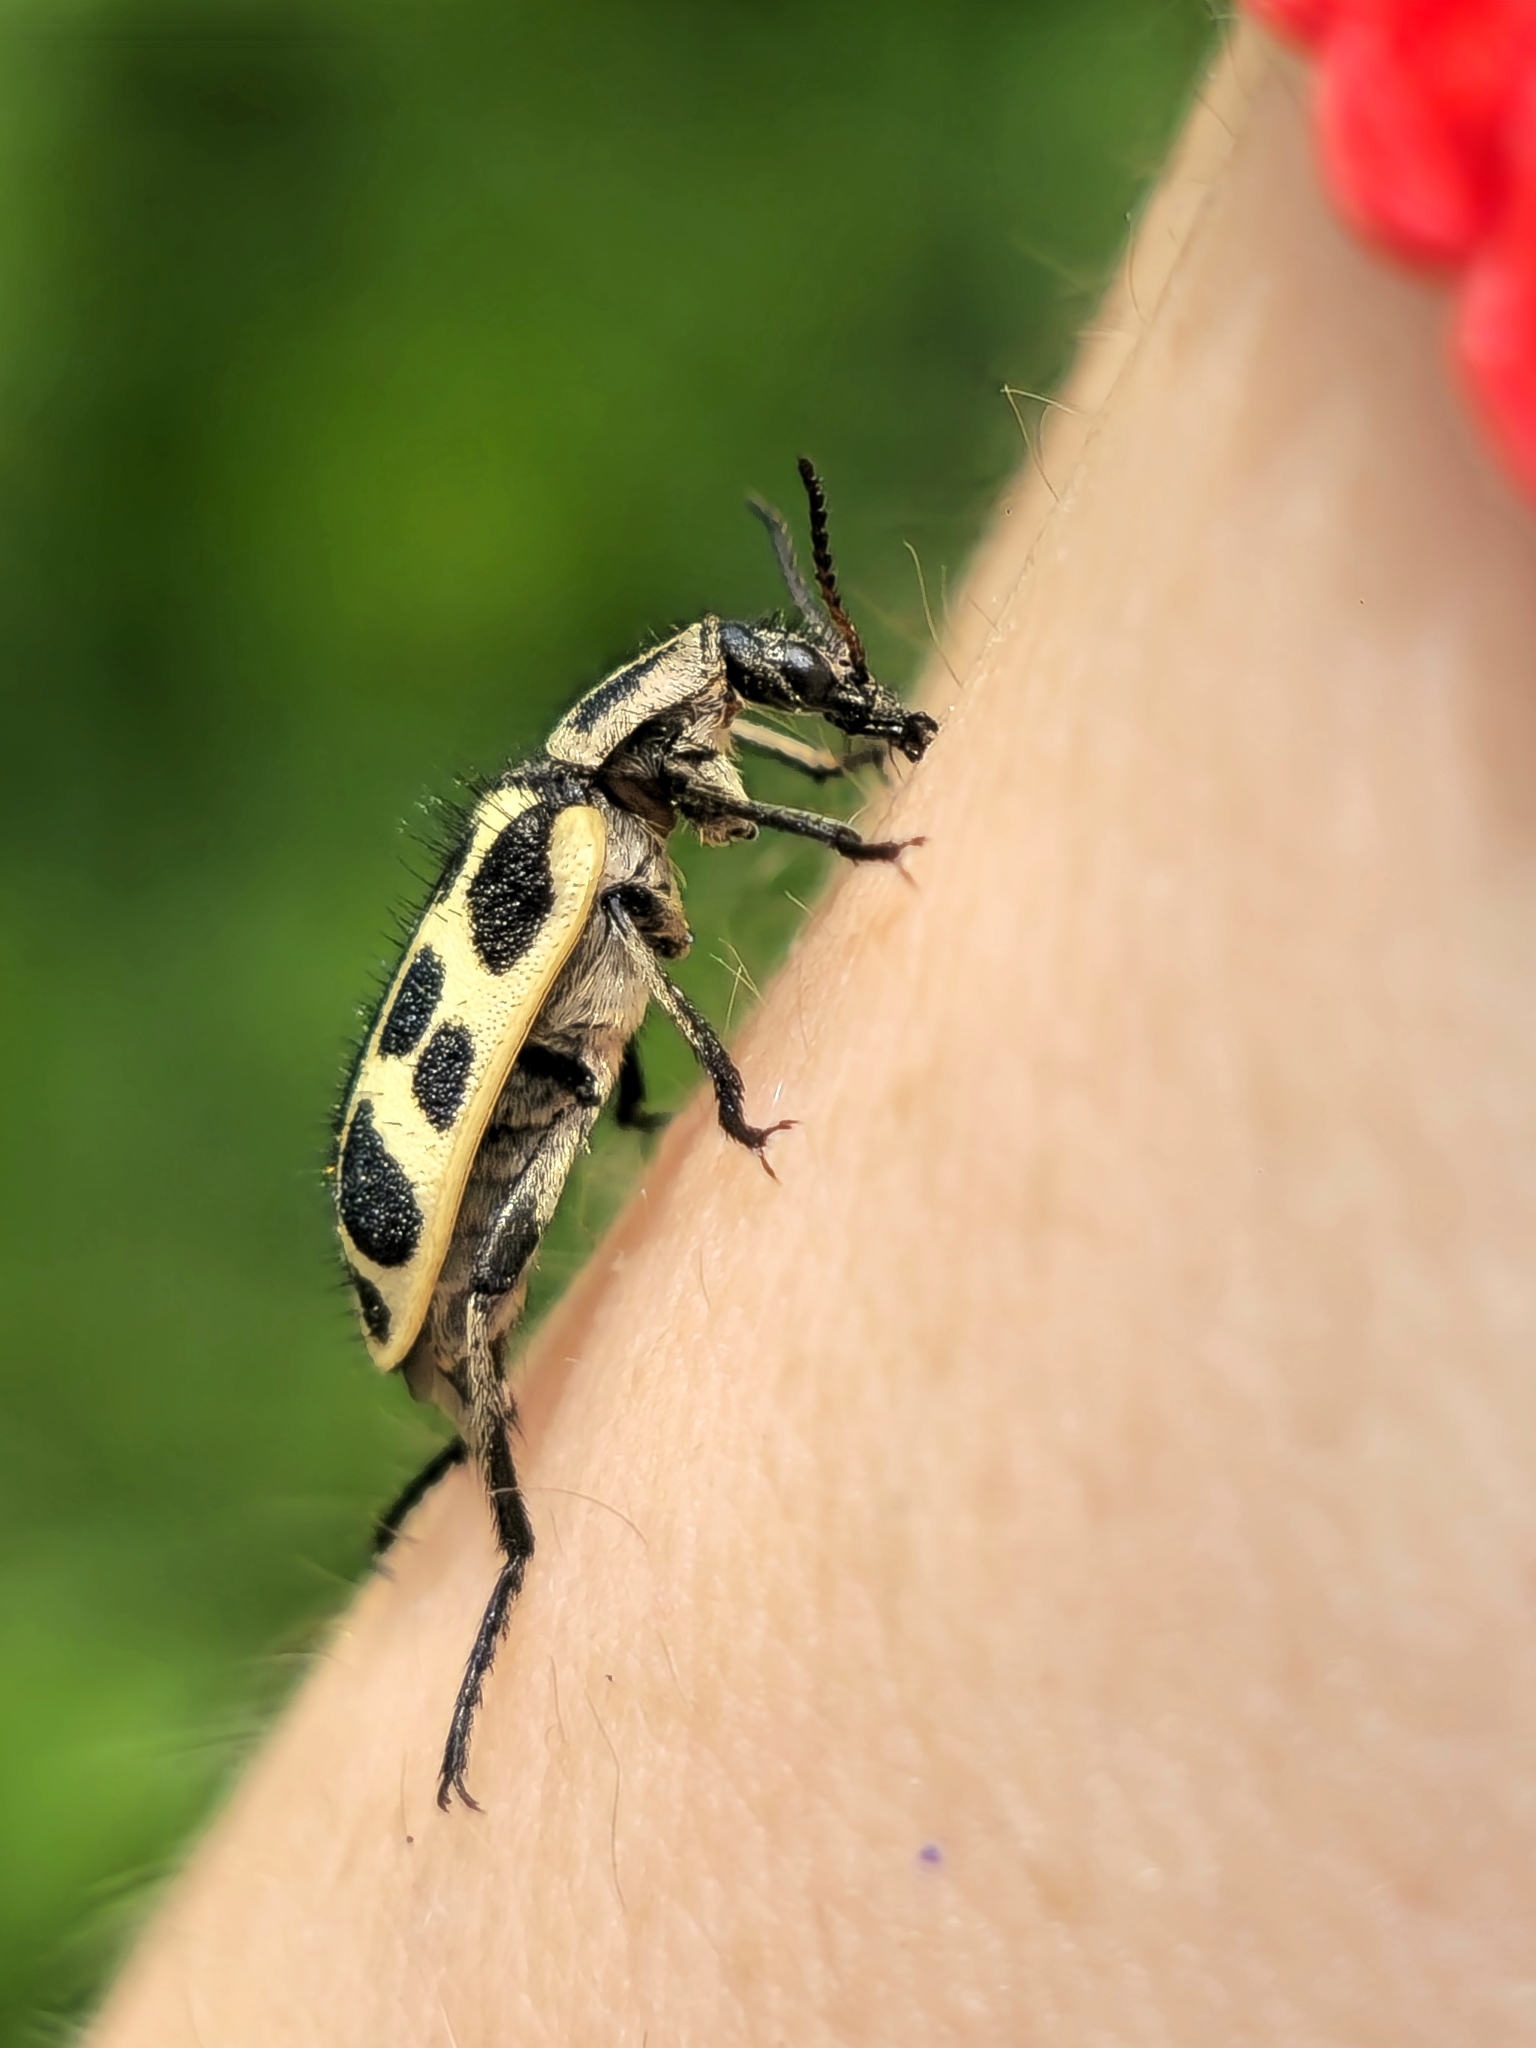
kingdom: Animalia
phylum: Arthropoda
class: Insecta
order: Coleoptera
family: Melyridae
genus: Astylus
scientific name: Astylus atromaculatus
